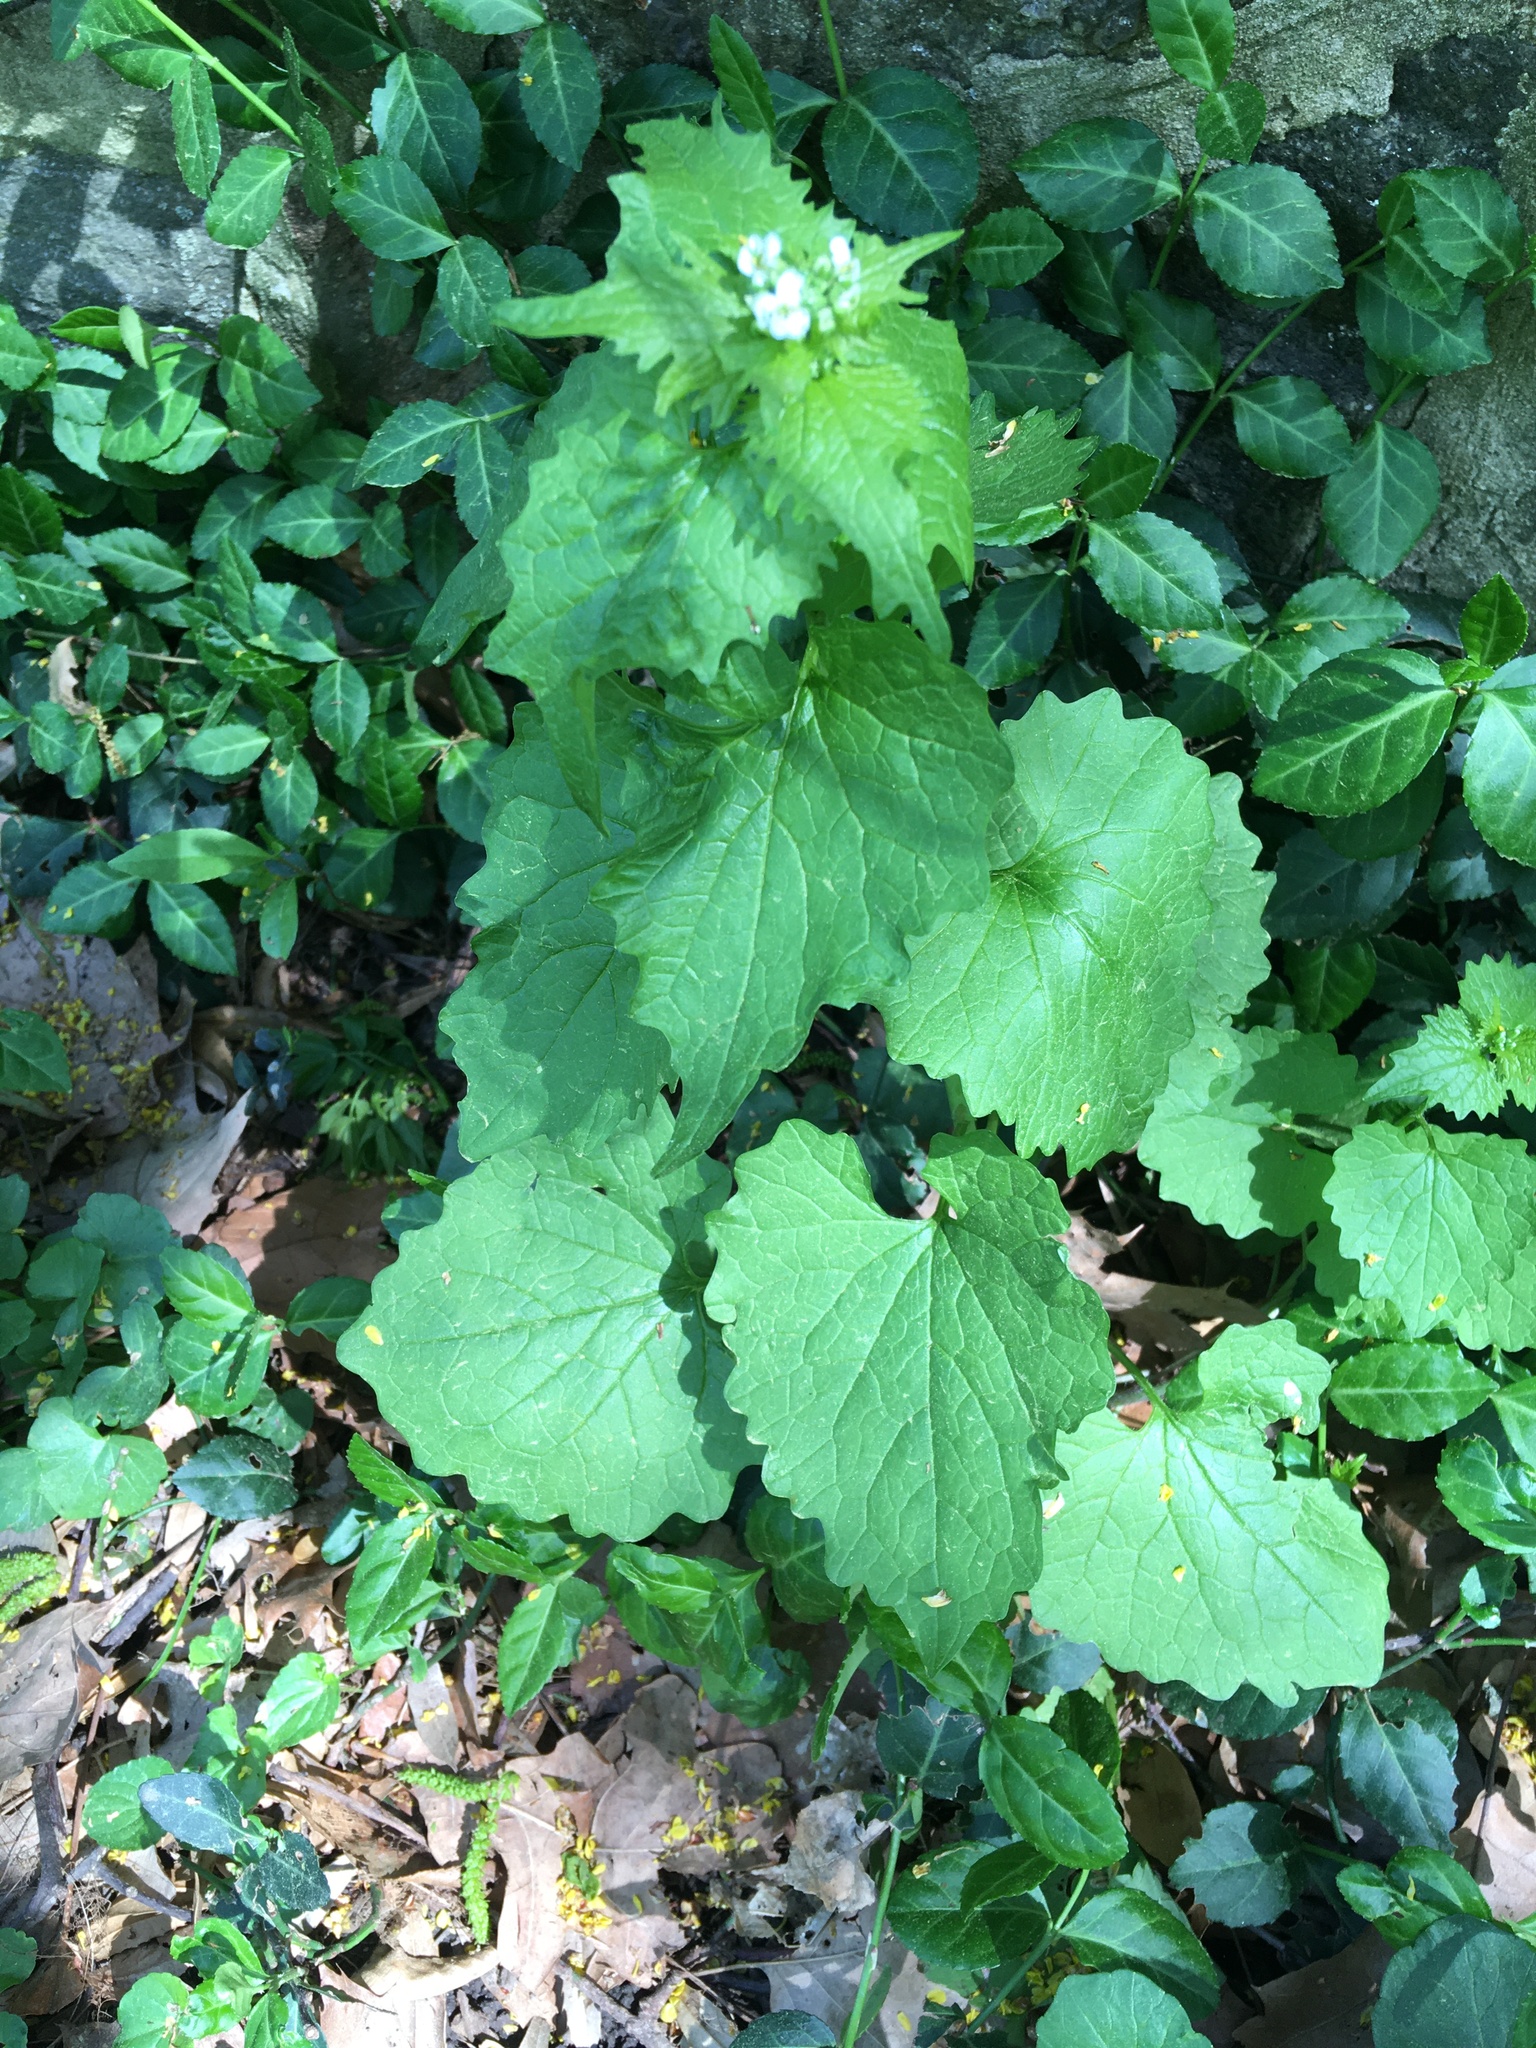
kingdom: Plantae
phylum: Tracheophyta
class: Magnoliopsida
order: Brassicales
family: Brassicaceae
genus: Alliaria
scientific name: Alliaria petiolata
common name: Garlic mustard
